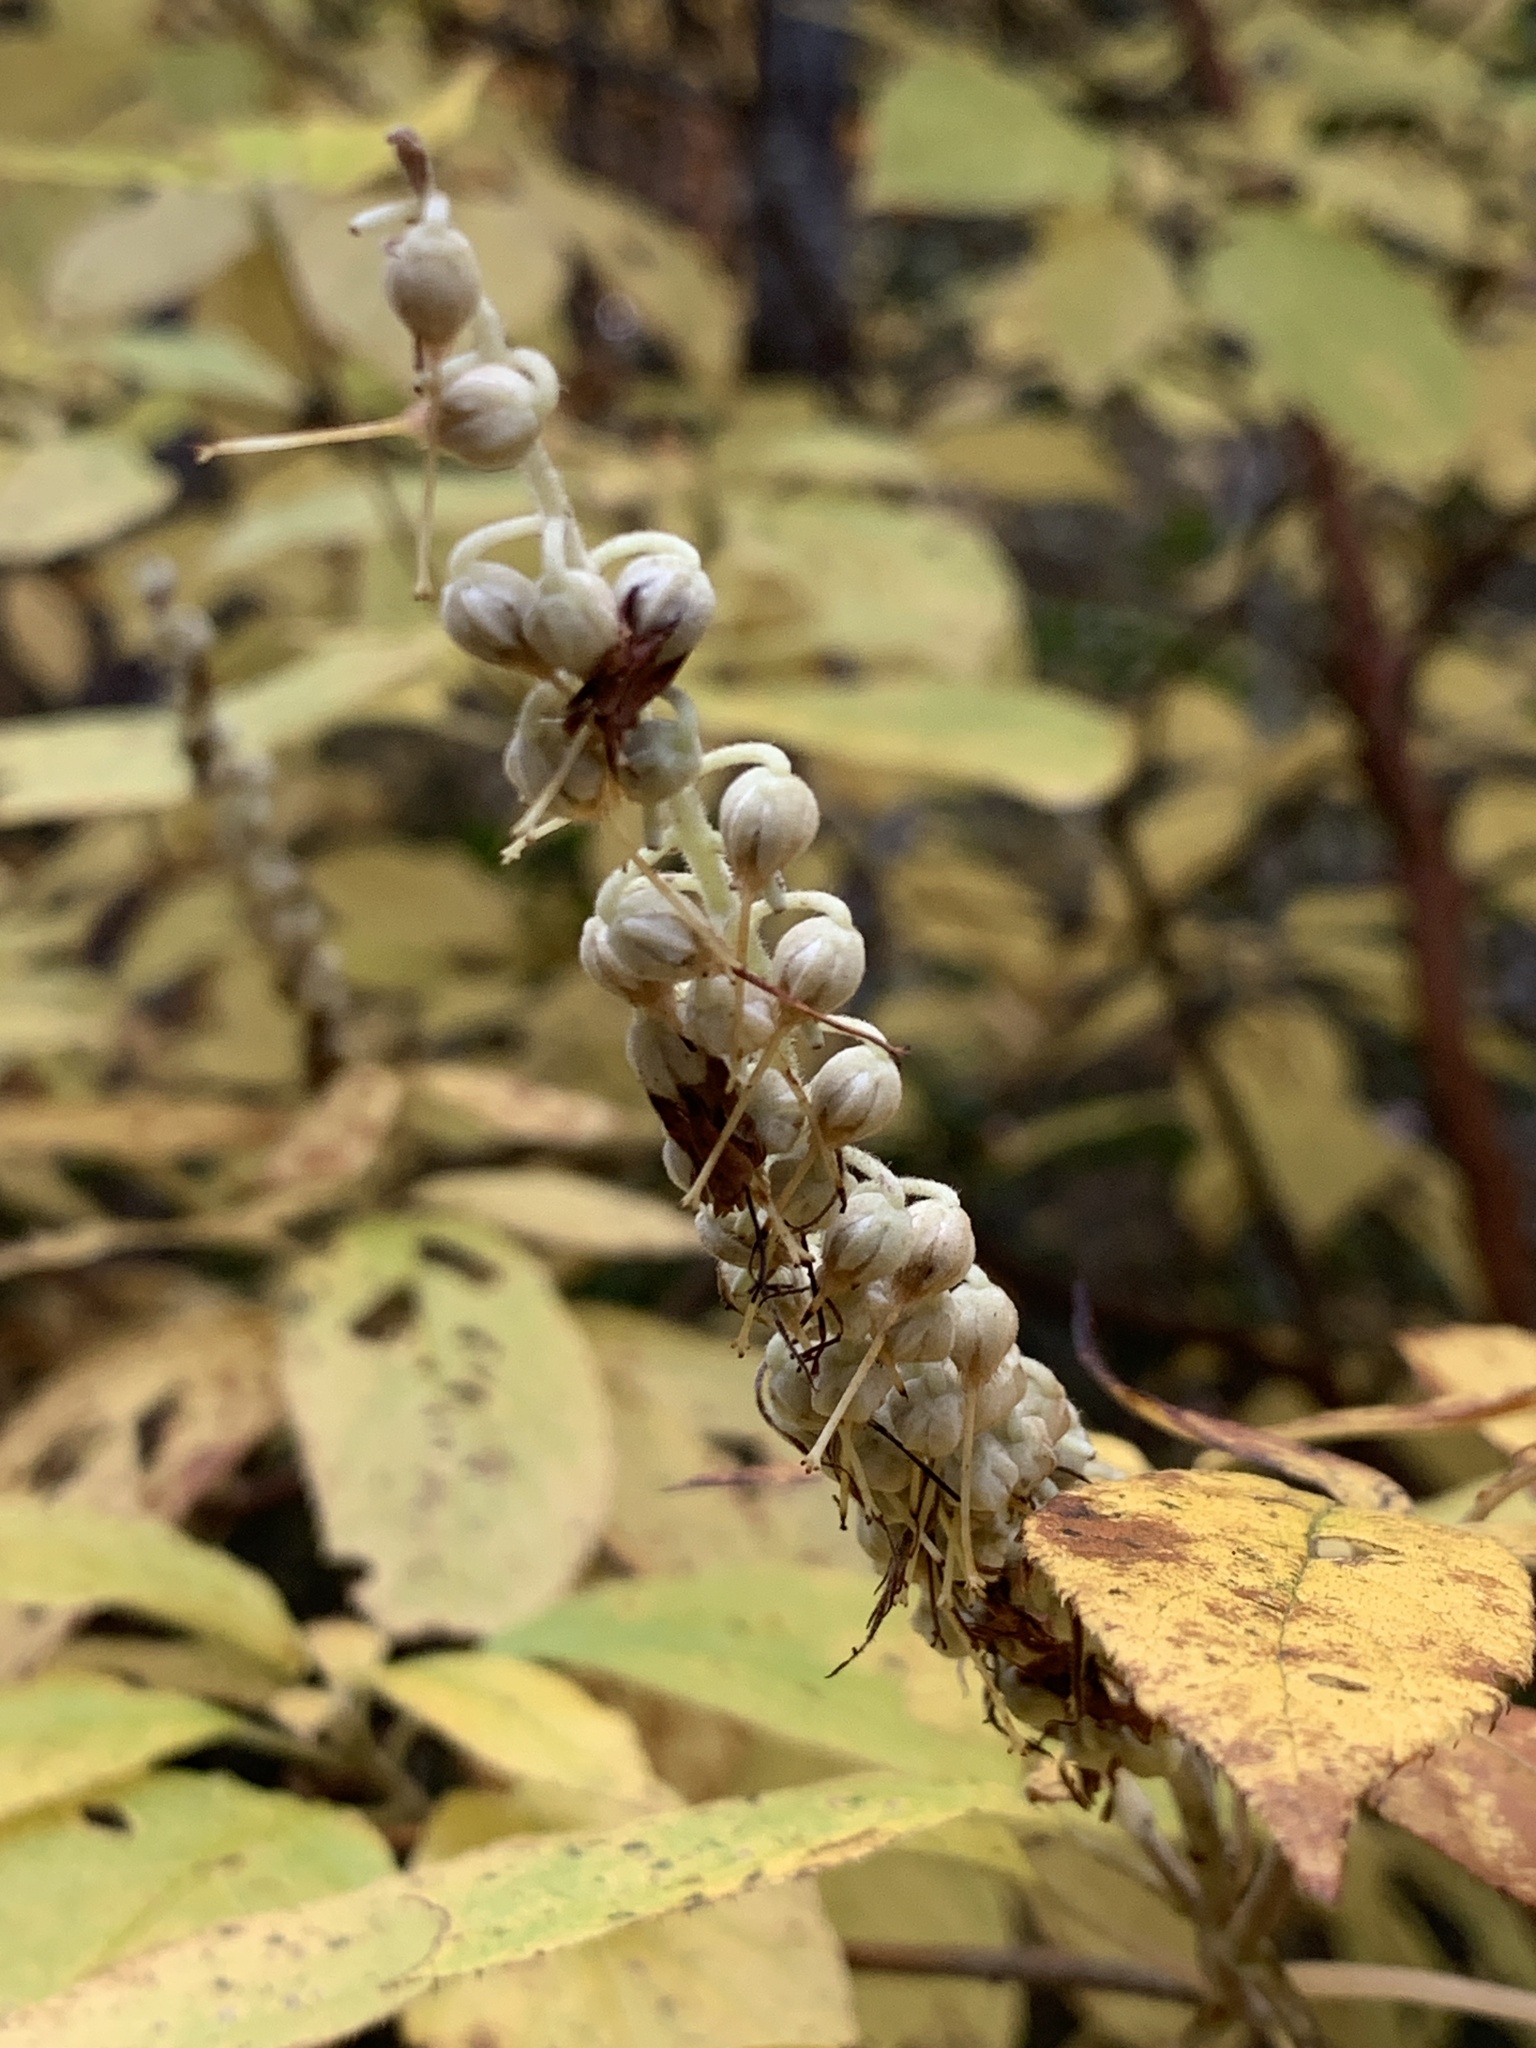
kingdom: Plantae
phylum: Tracheophyta
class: Magnoliopsida
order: Ericales
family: Clethraceae
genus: Clethra
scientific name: Clethra acuminata
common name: Mountain sweet pepperbush
